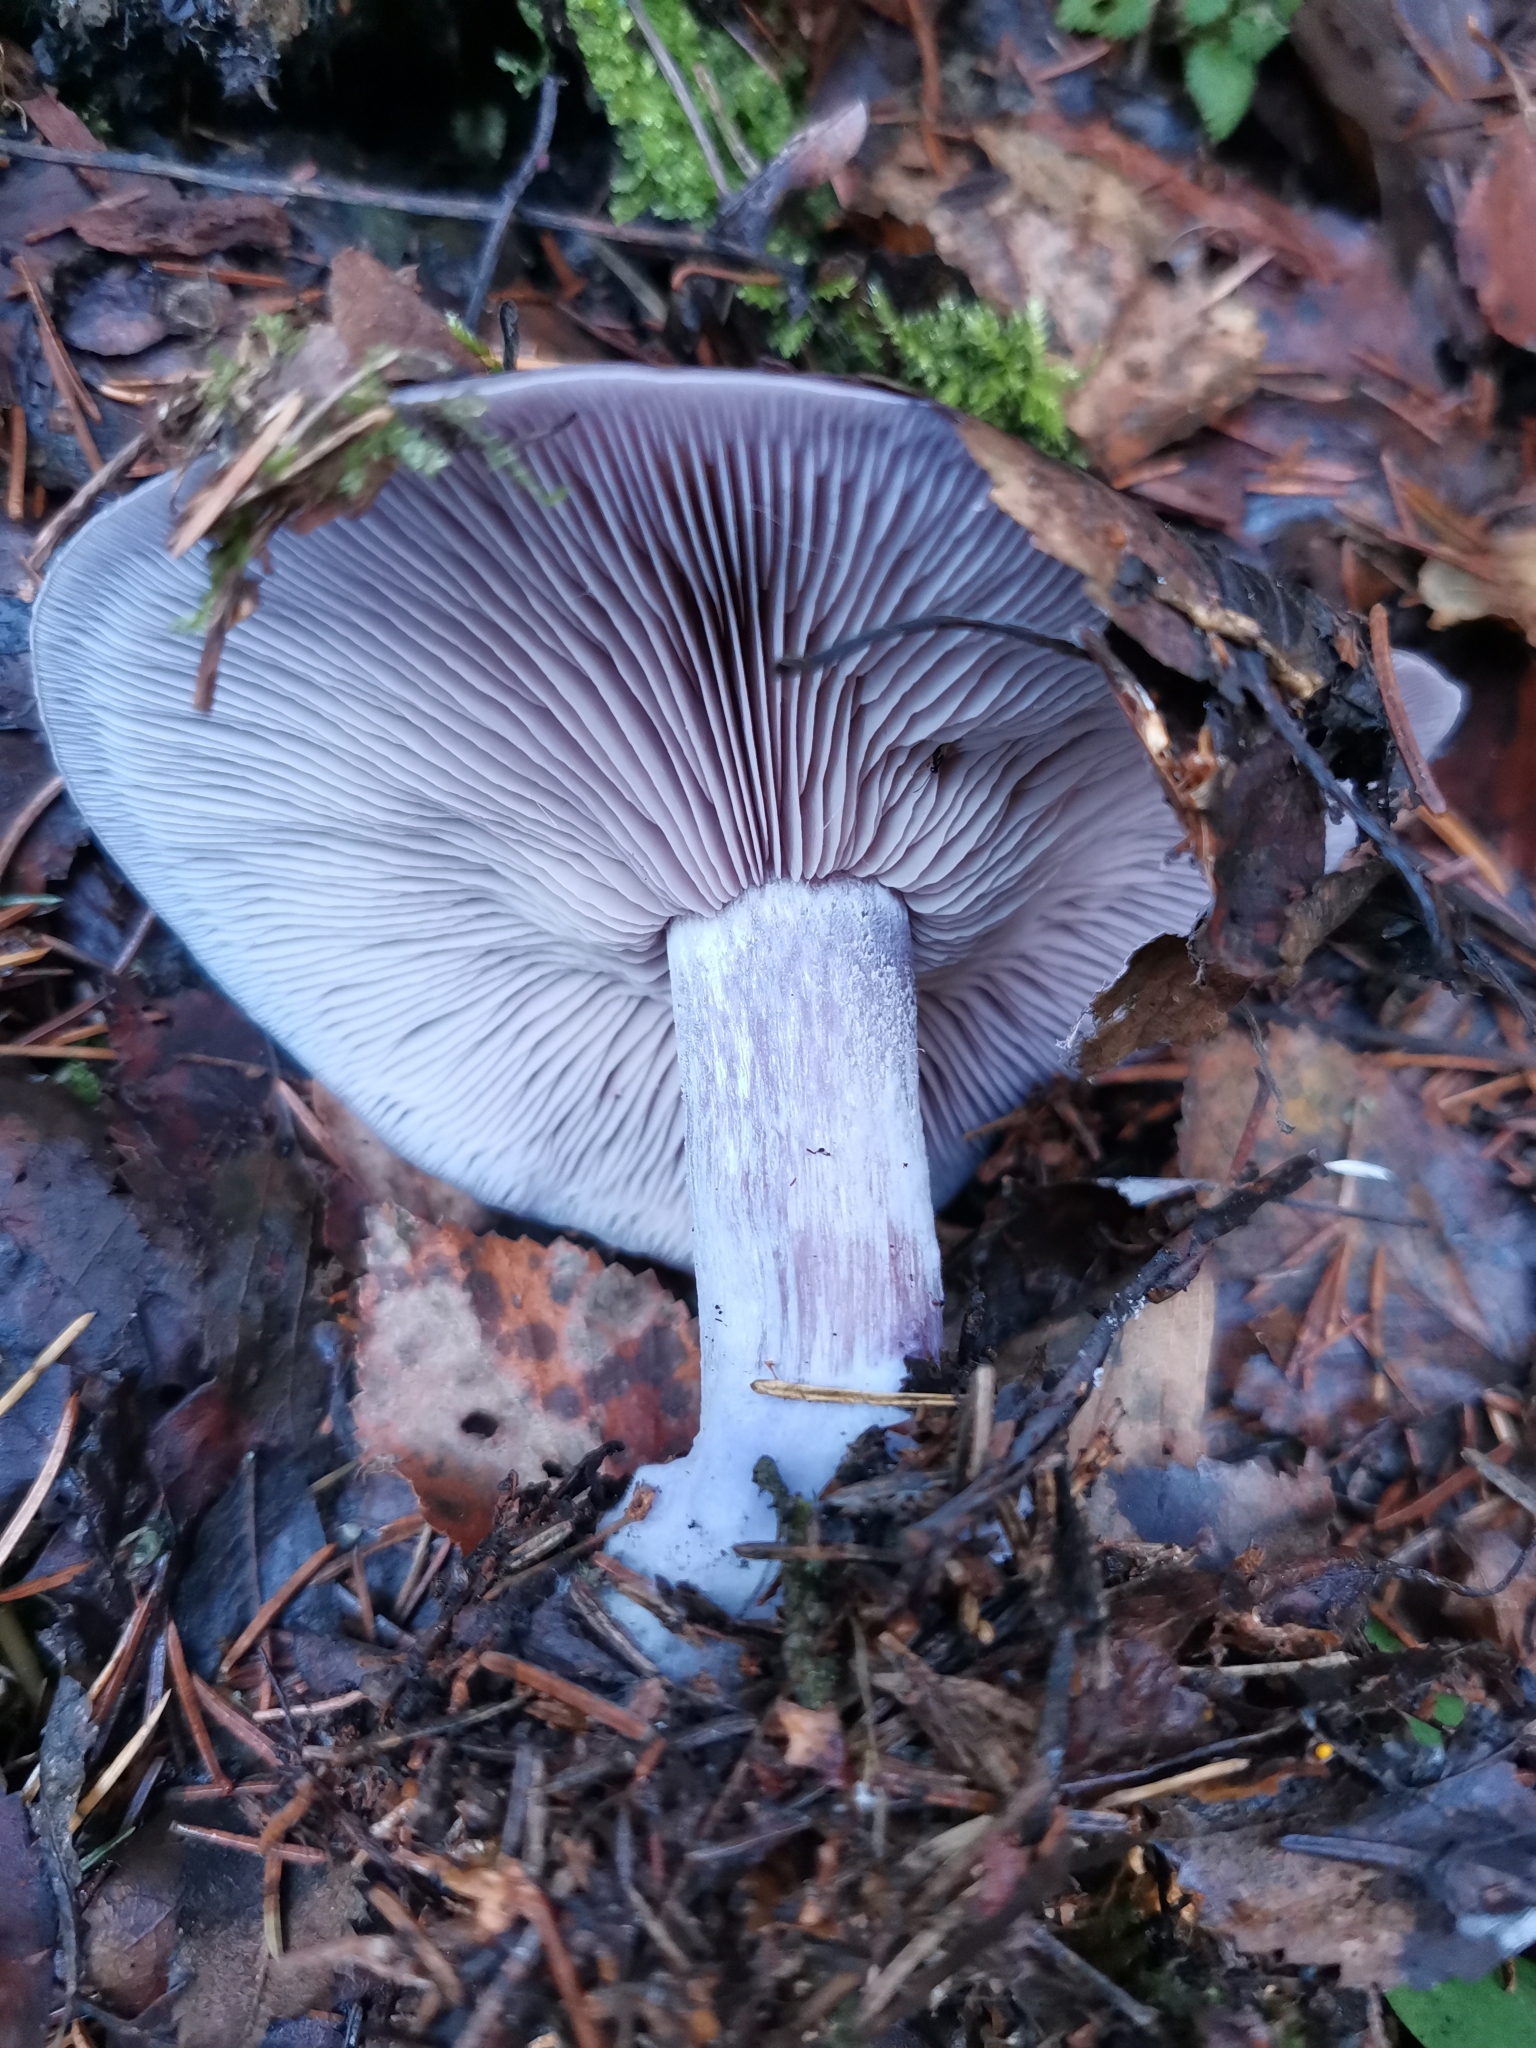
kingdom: Fungi
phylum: Basidiomycota
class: Agaricomycetes
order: Agaricales
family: Tricholomataceae
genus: Collybia
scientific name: Collybia
